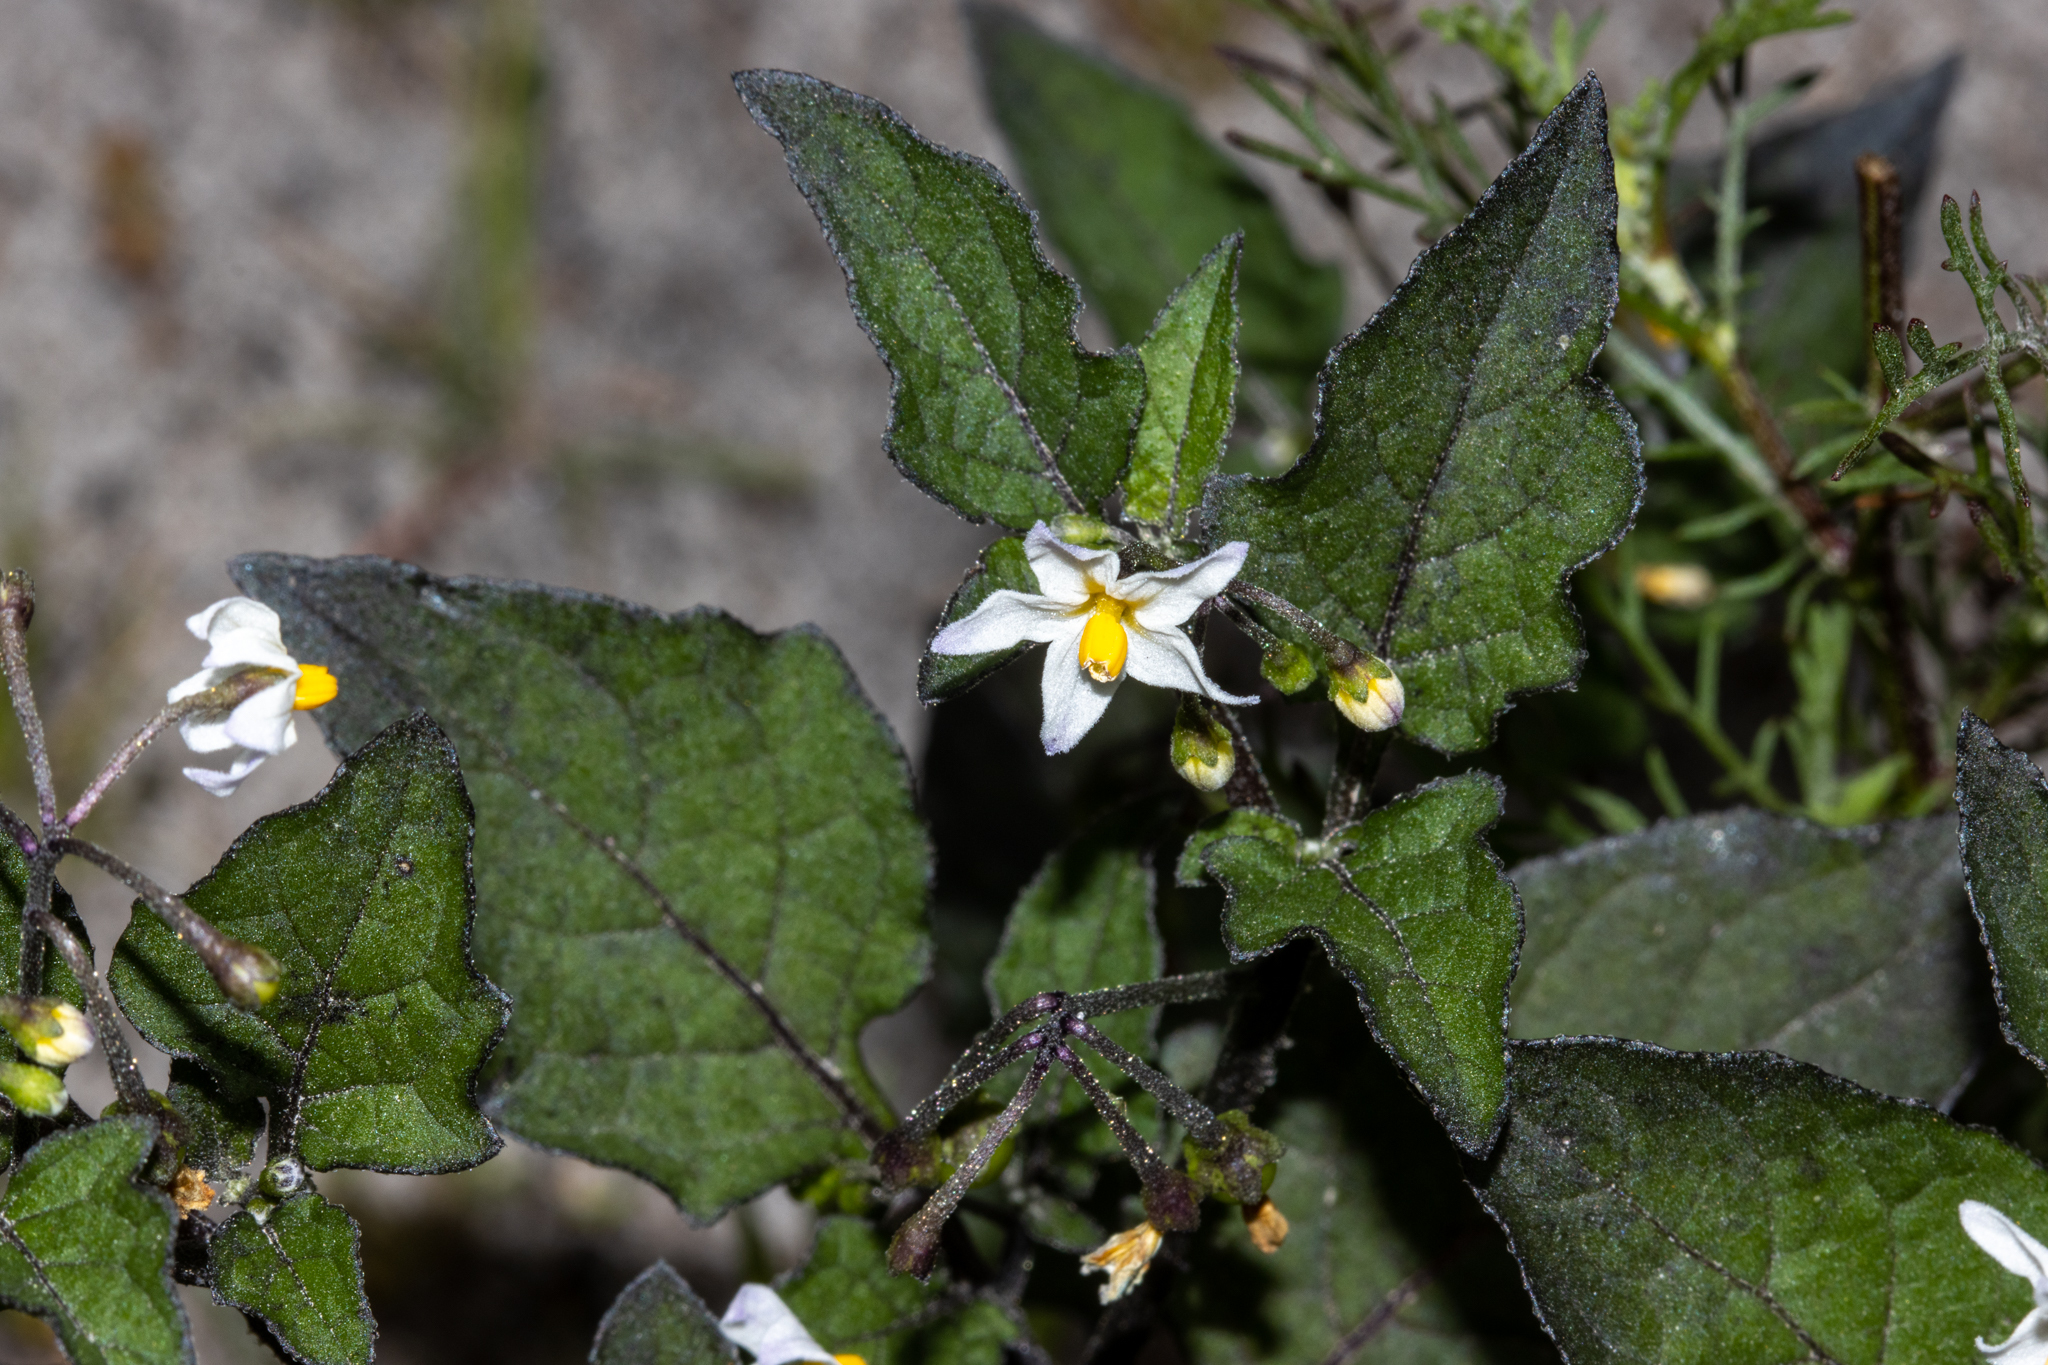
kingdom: Plantae
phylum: Tracheophyta
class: Magnoliopsida
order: Solanales
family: Solanaceae
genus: Solanum
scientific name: Solanum nigrum
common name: Black nightshade
